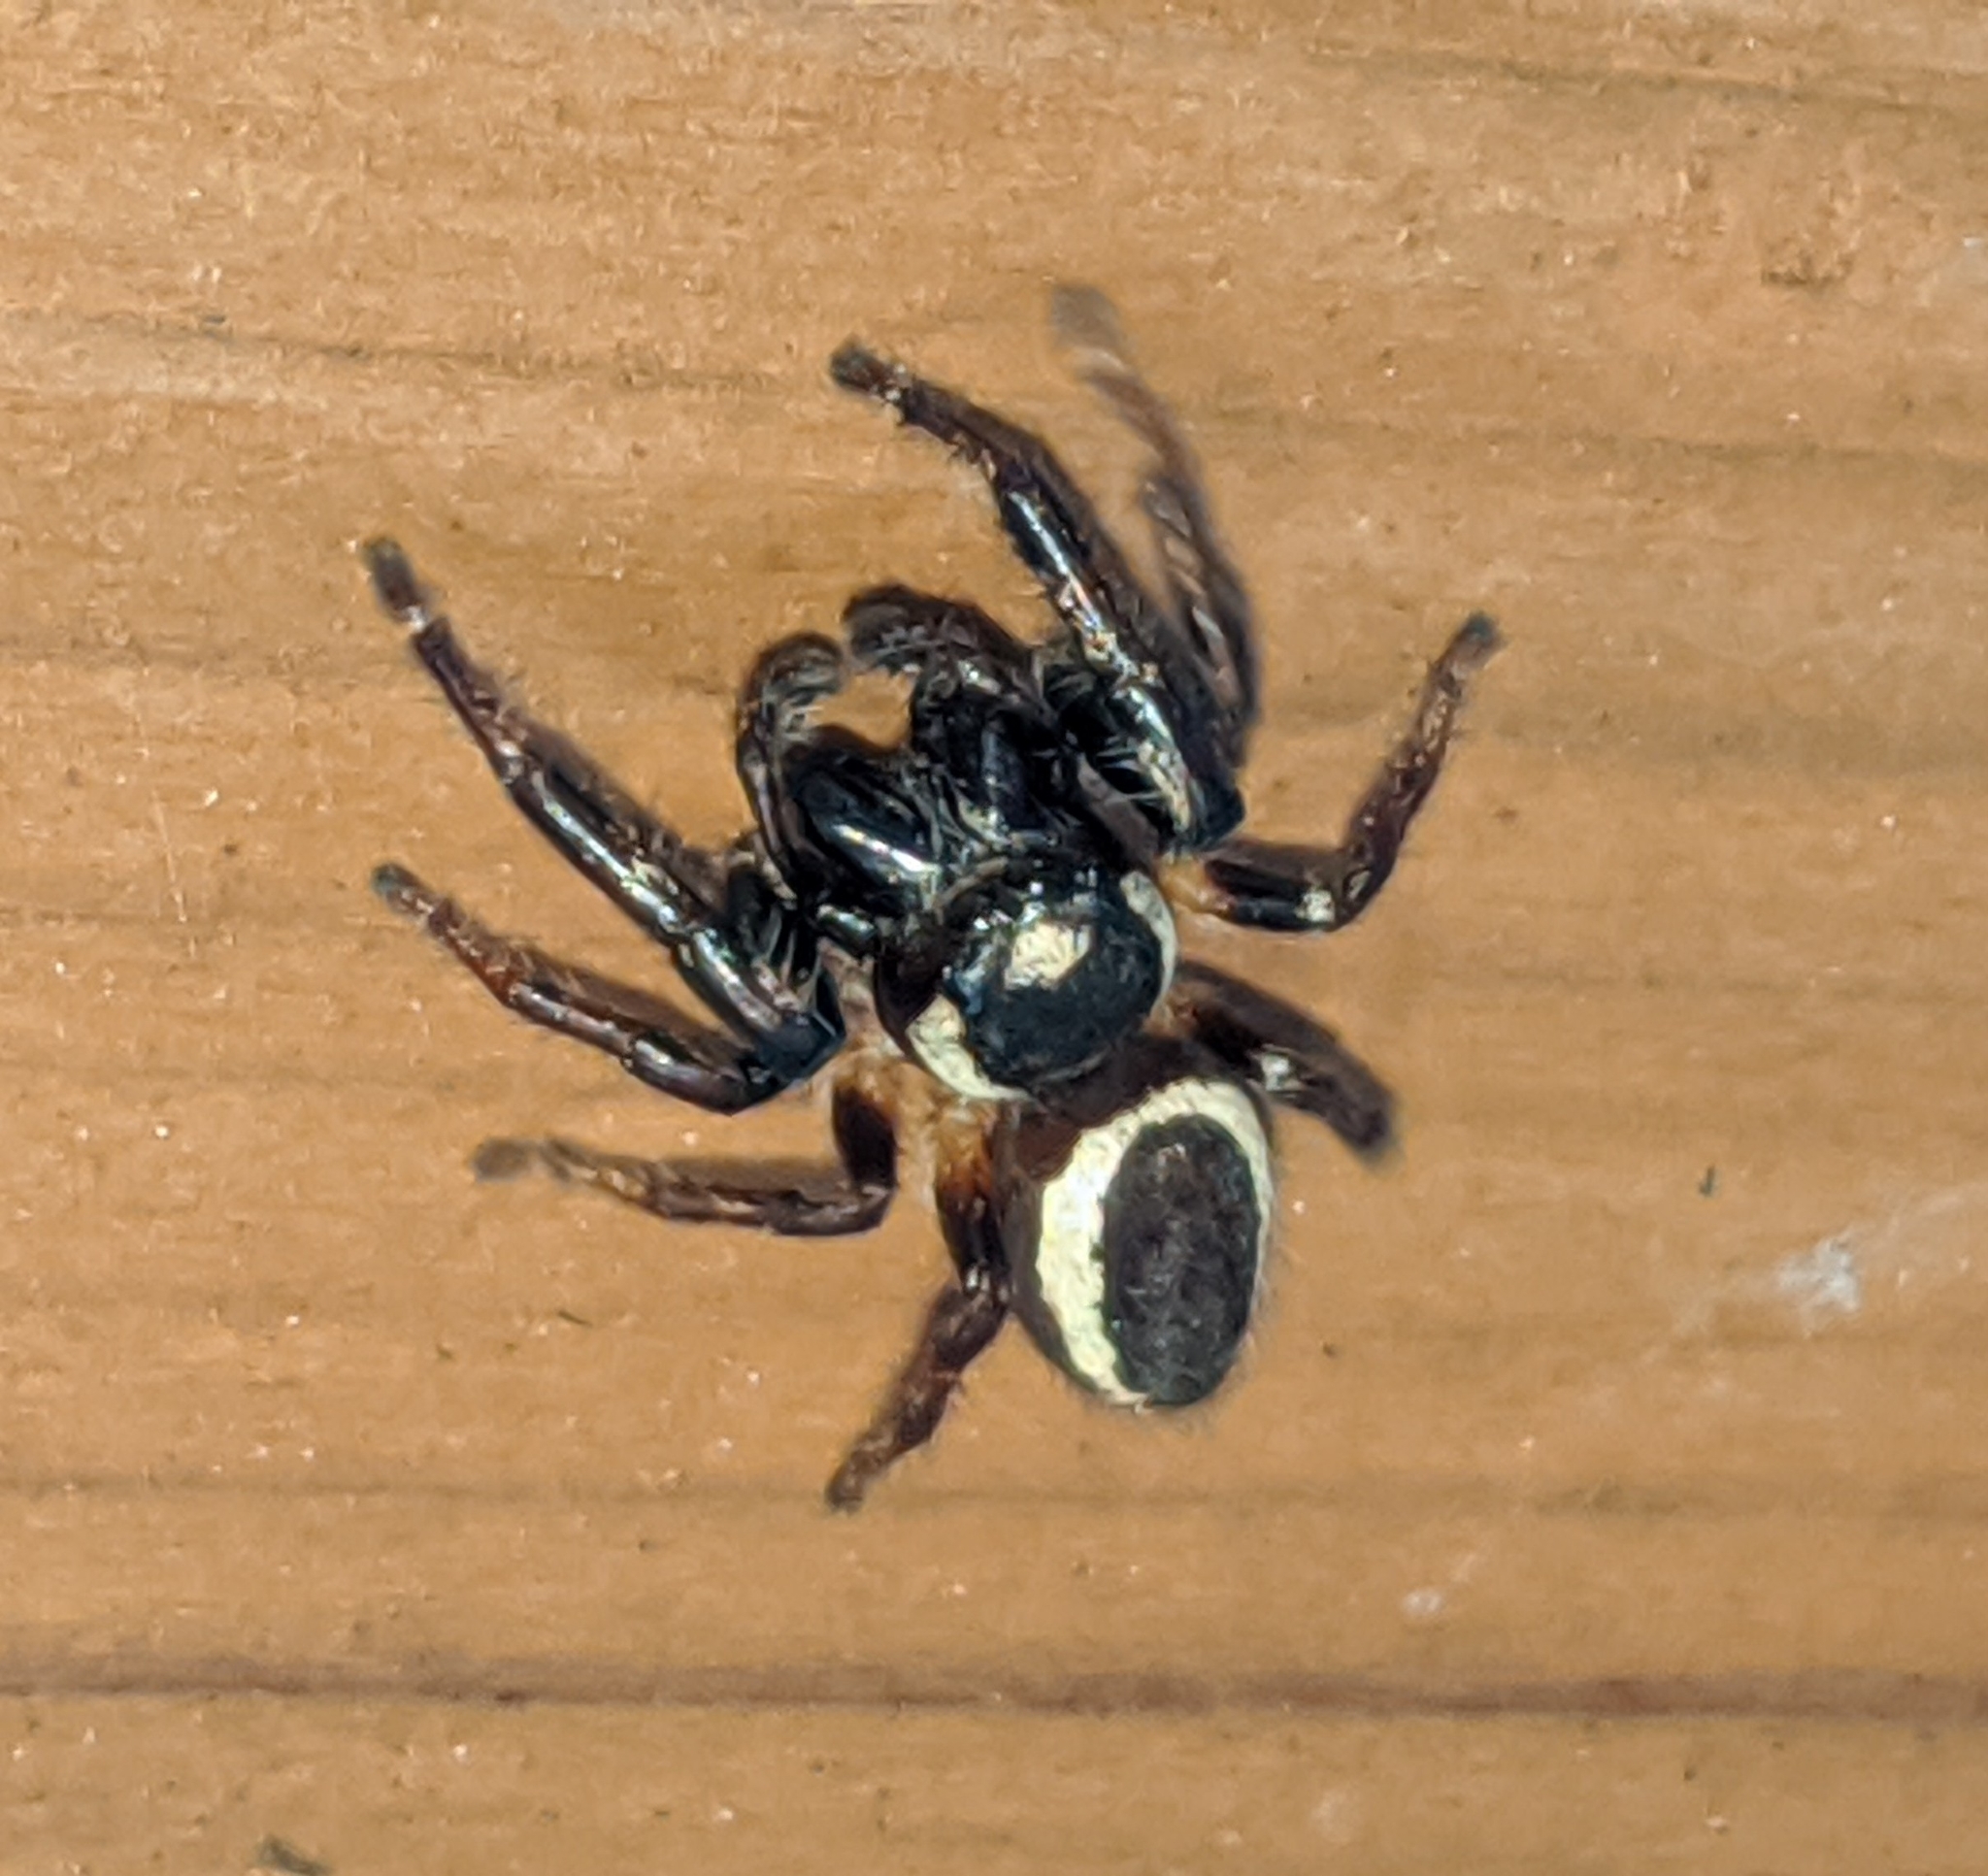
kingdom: Animalia
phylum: Arthropoda
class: Arachnida
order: Araneae
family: Salticidae
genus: Eris
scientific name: Eris militaris
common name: Bronze jumper
